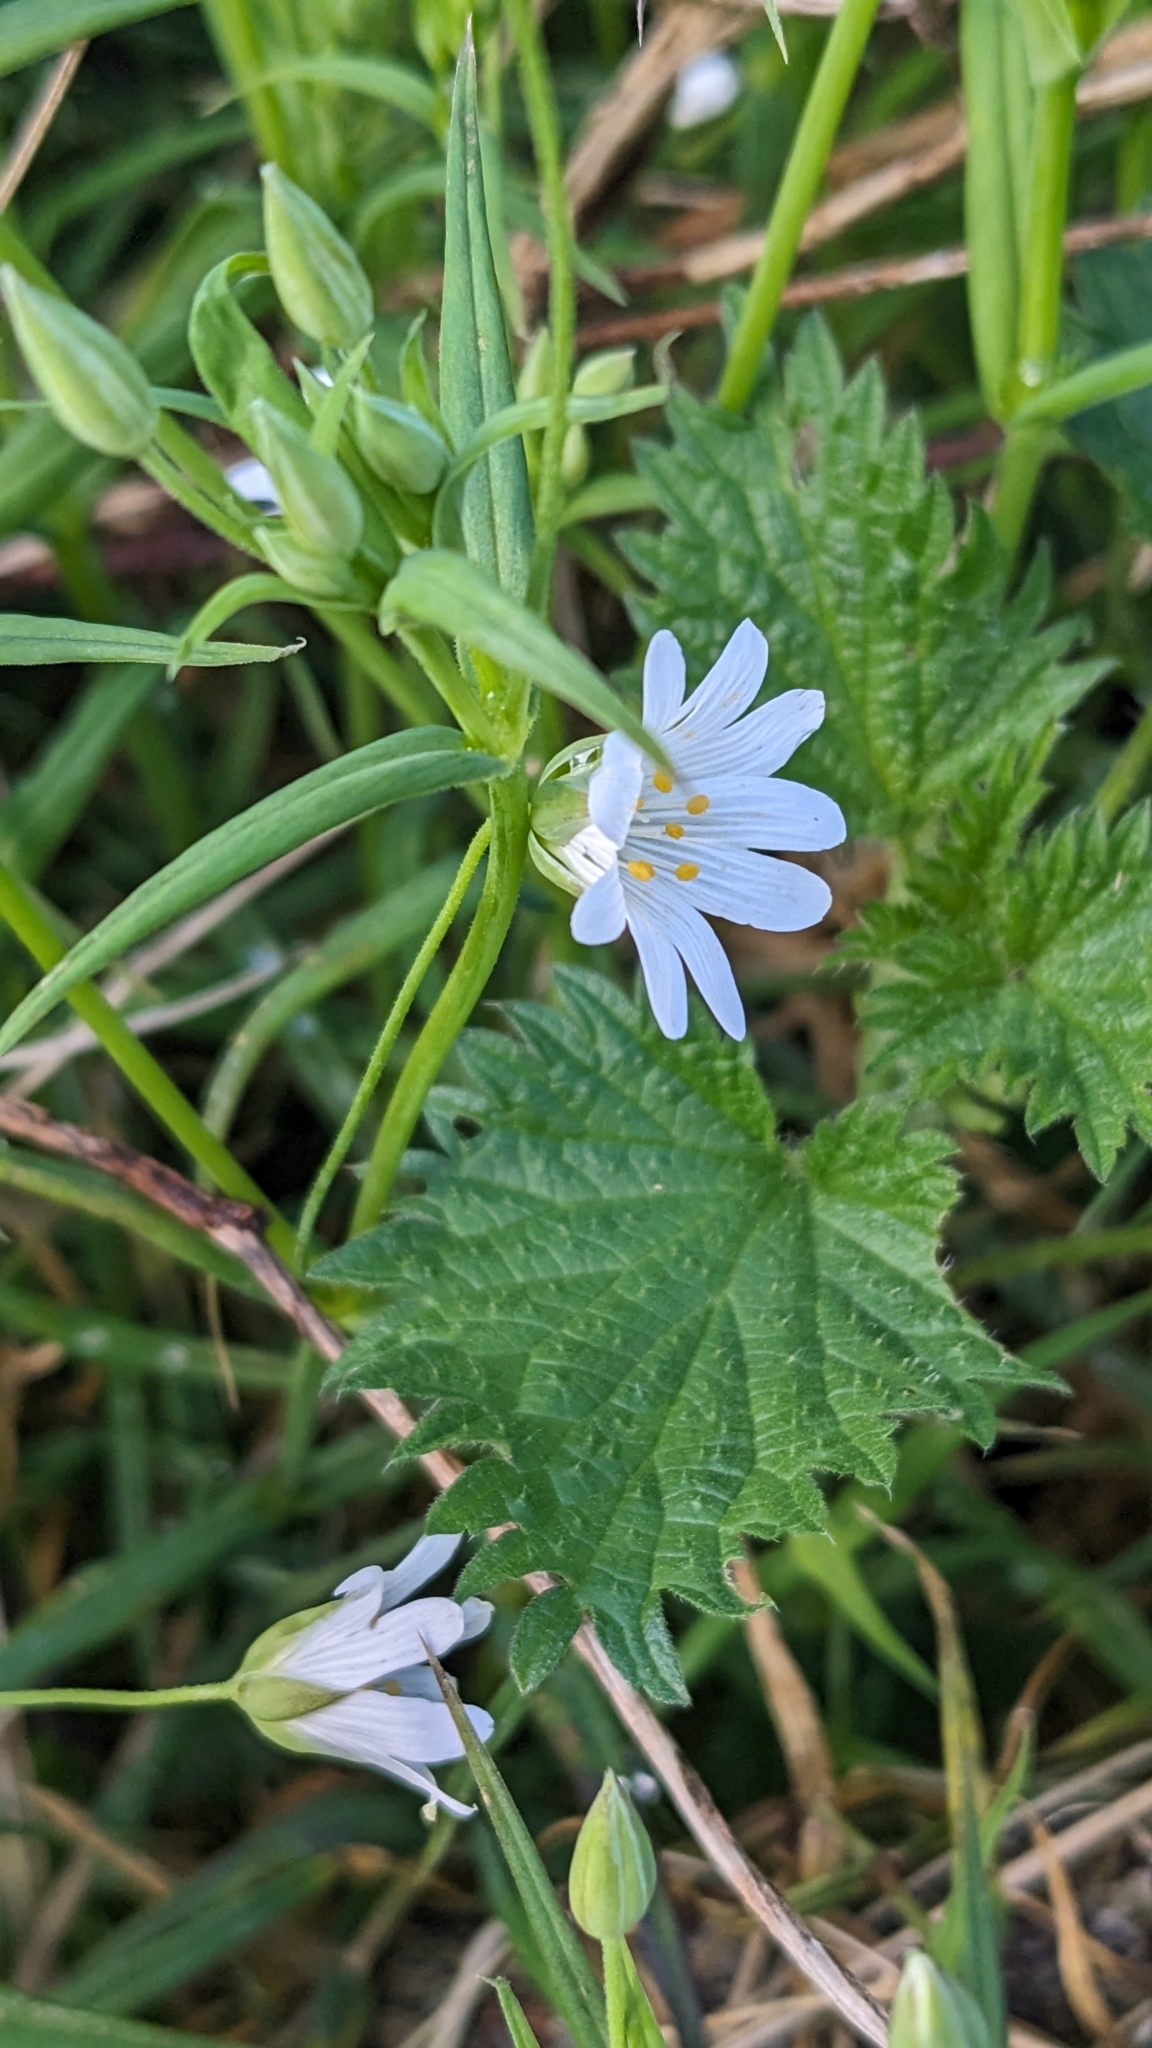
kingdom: Plantae
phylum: Tracheophyta
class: Magnoliopsida
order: Caryophyllales
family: Caryophyllaceae
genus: Rabelera
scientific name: Rabelera holostea
